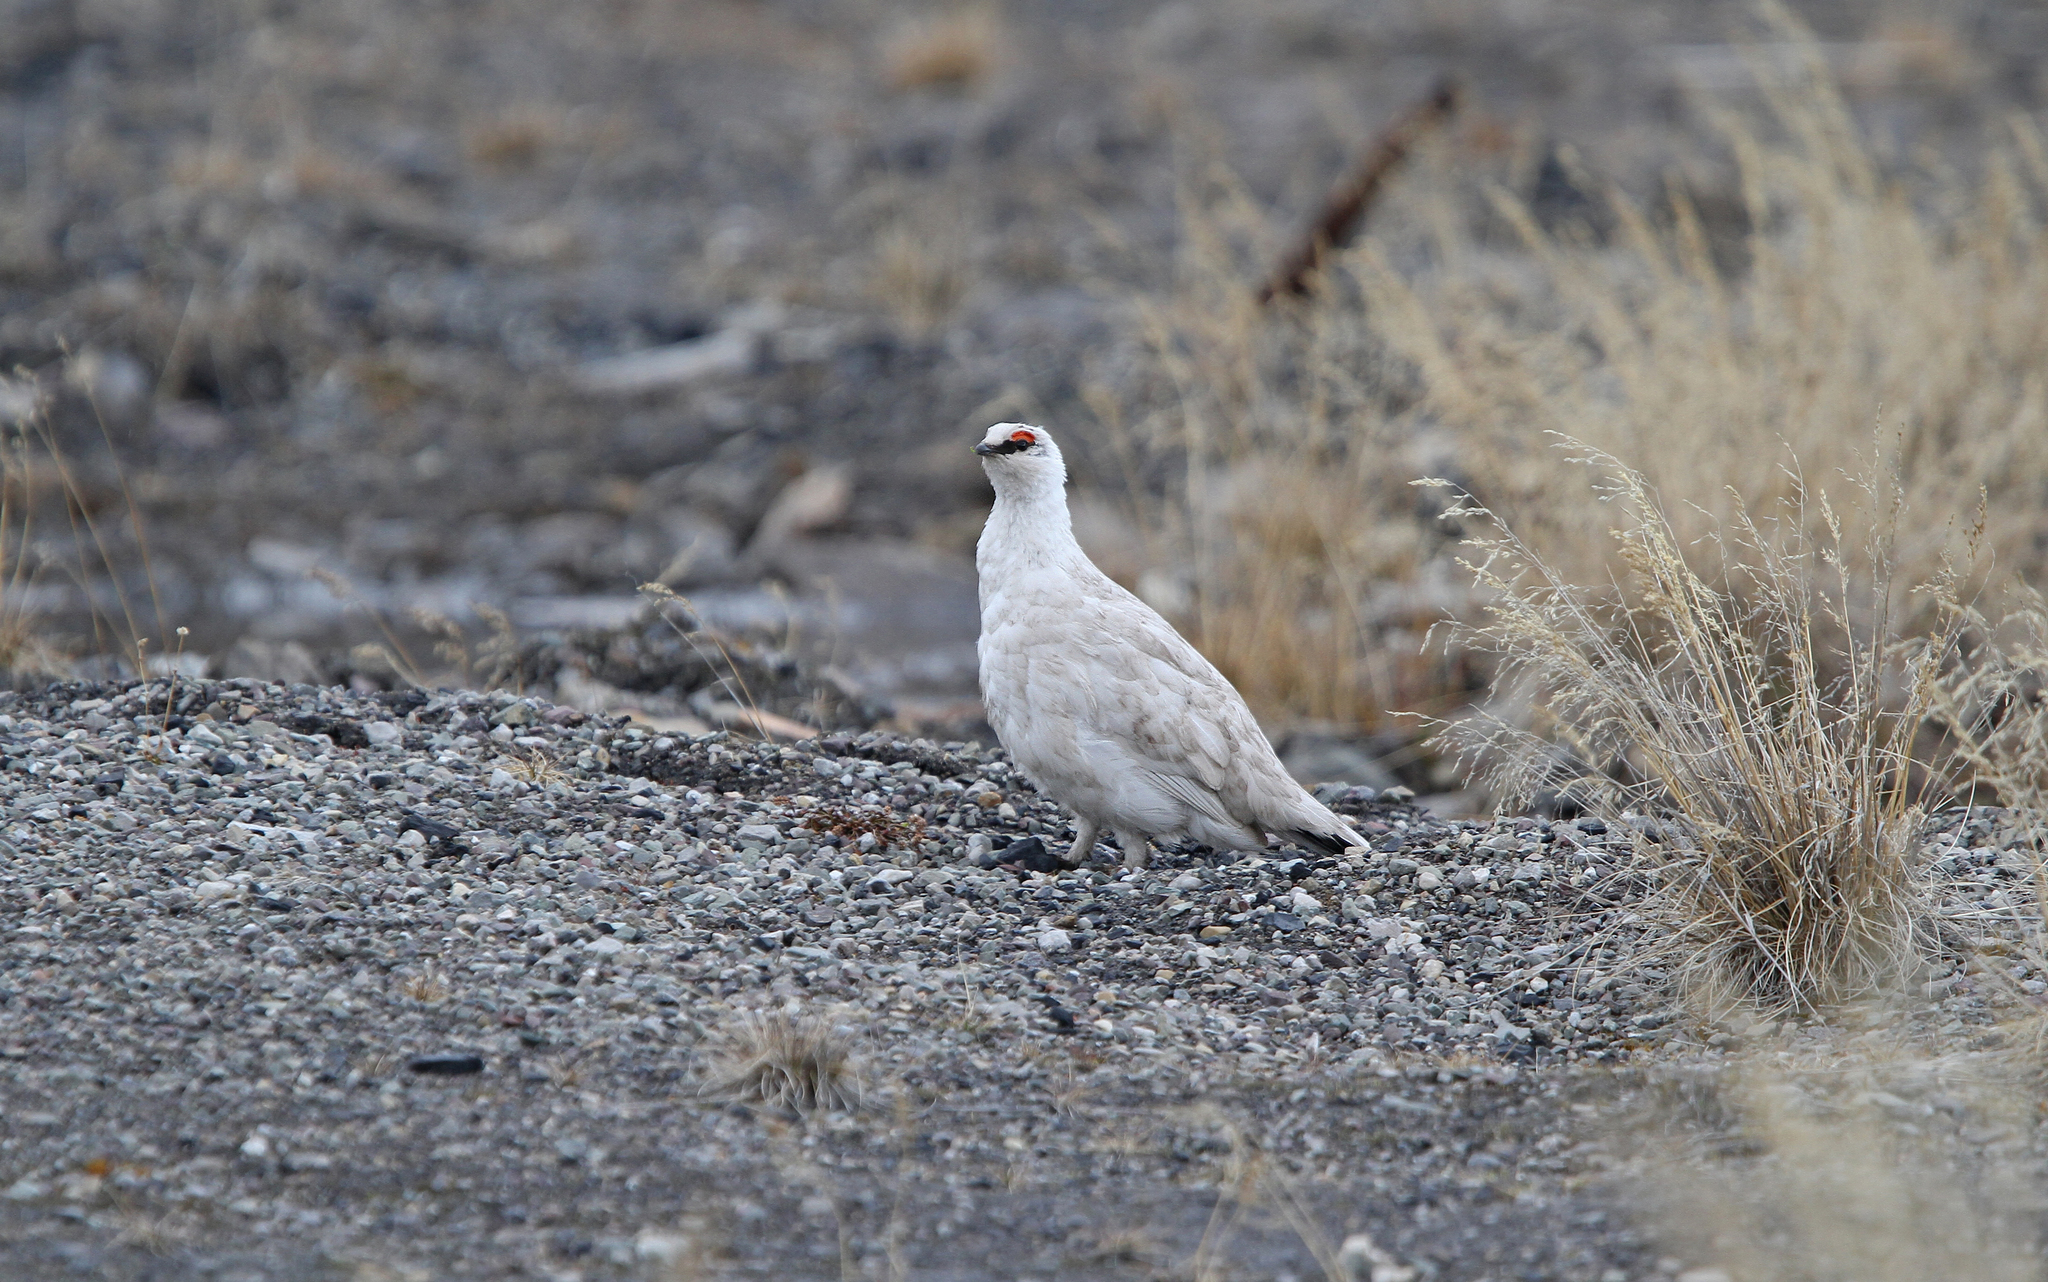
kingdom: Animalia
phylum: Chordata
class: Aves
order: Galliformes
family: Phasianidae
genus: Lagopus
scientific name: Lagopus muta
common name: Rock ptarmigan
